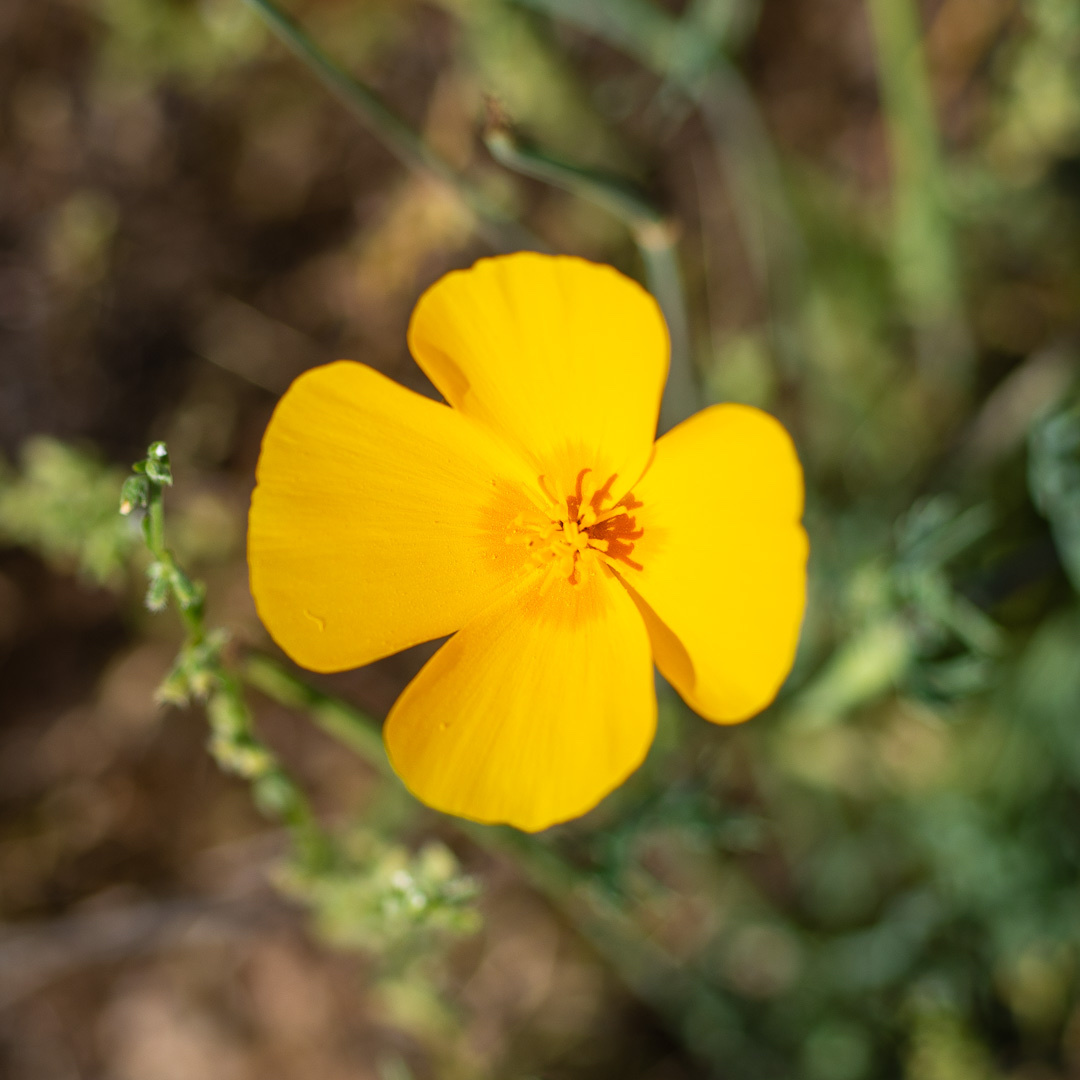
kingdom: Plantae
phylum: Tracheophyta
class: Magnoliopsida
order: Ranunculales
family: Papaveraceae
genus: Eschscholzia
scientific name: Eschscholzia californica
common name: California poppy
